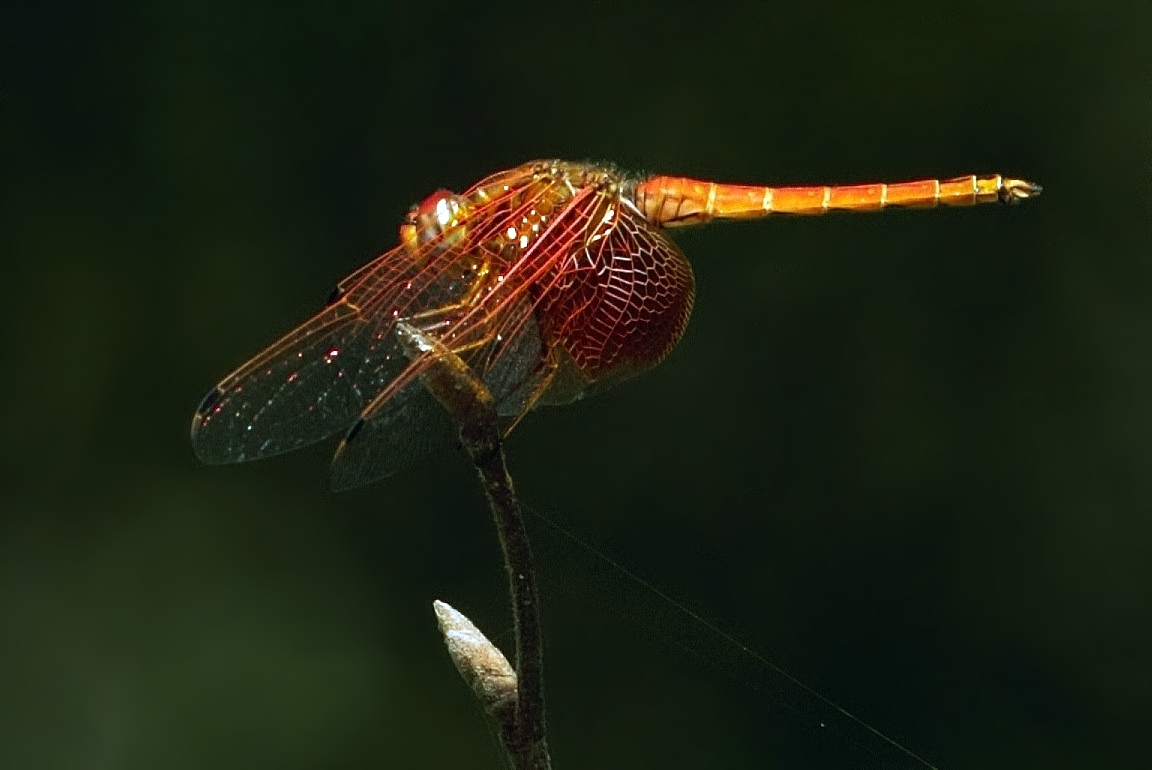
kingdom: Animalia
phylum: Arthropoda
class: Insecta
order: Odonata
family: Libellulidae
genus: Trithemis
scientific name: Trithemis kirbyi
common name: Kirby's dropwing
